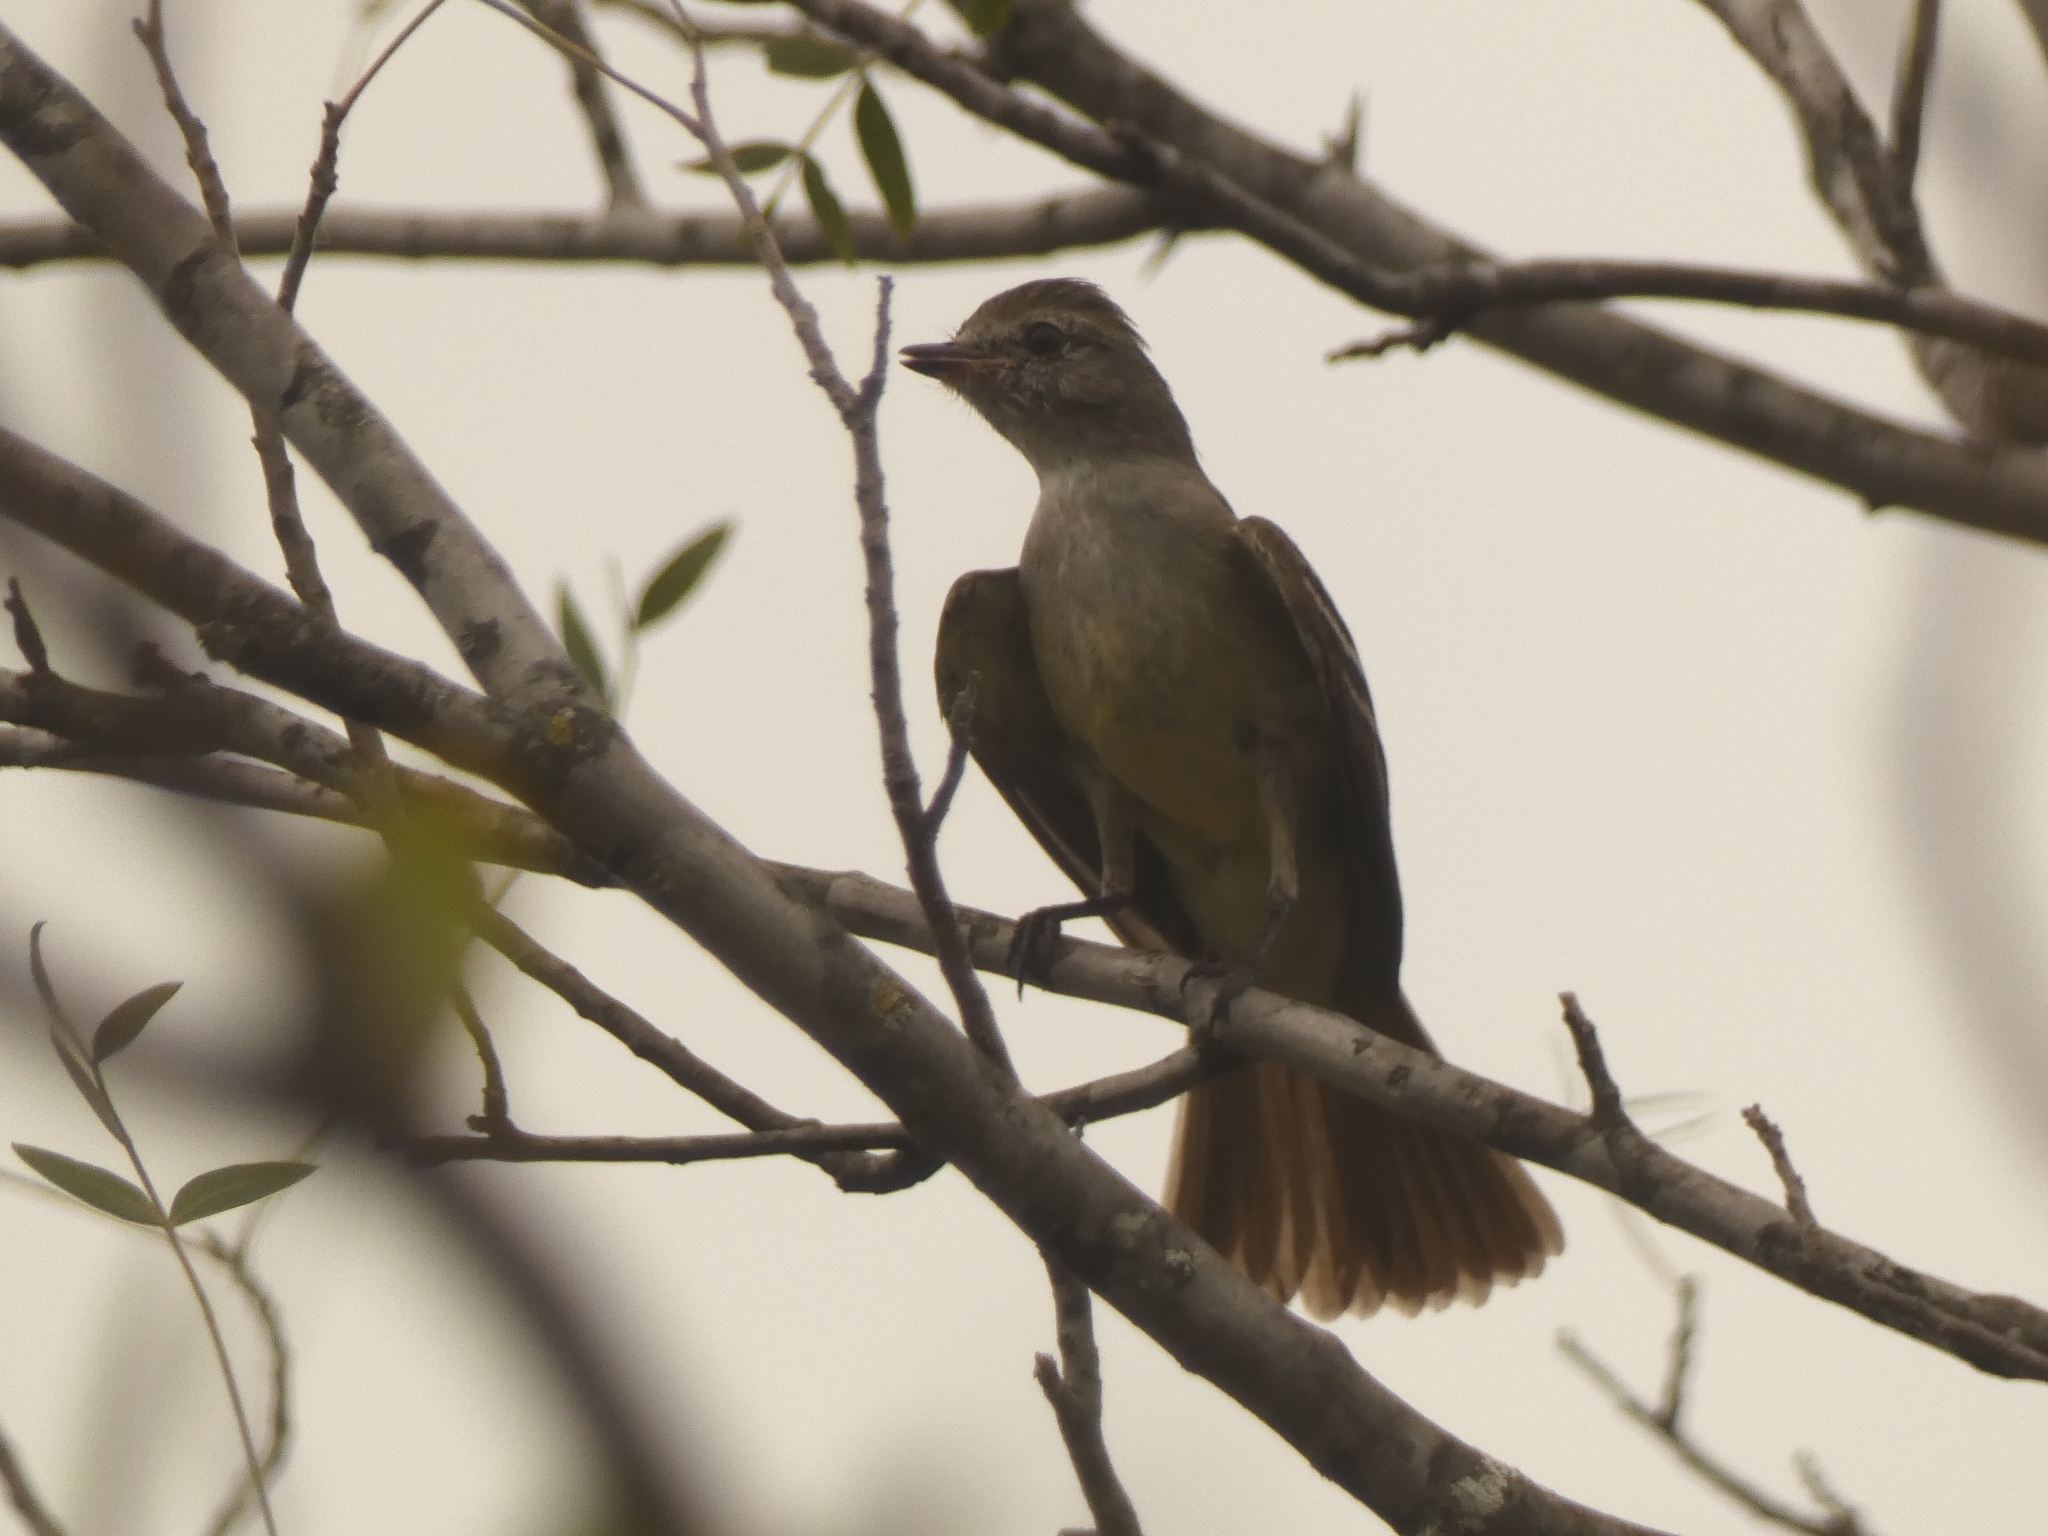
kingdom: Animalia
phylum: Chordata
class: Aves
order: Passeriformes
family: Tyrannidae
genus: Sublegatus
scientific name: Sublegatus modestus
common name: Southern scrub flycatcher
